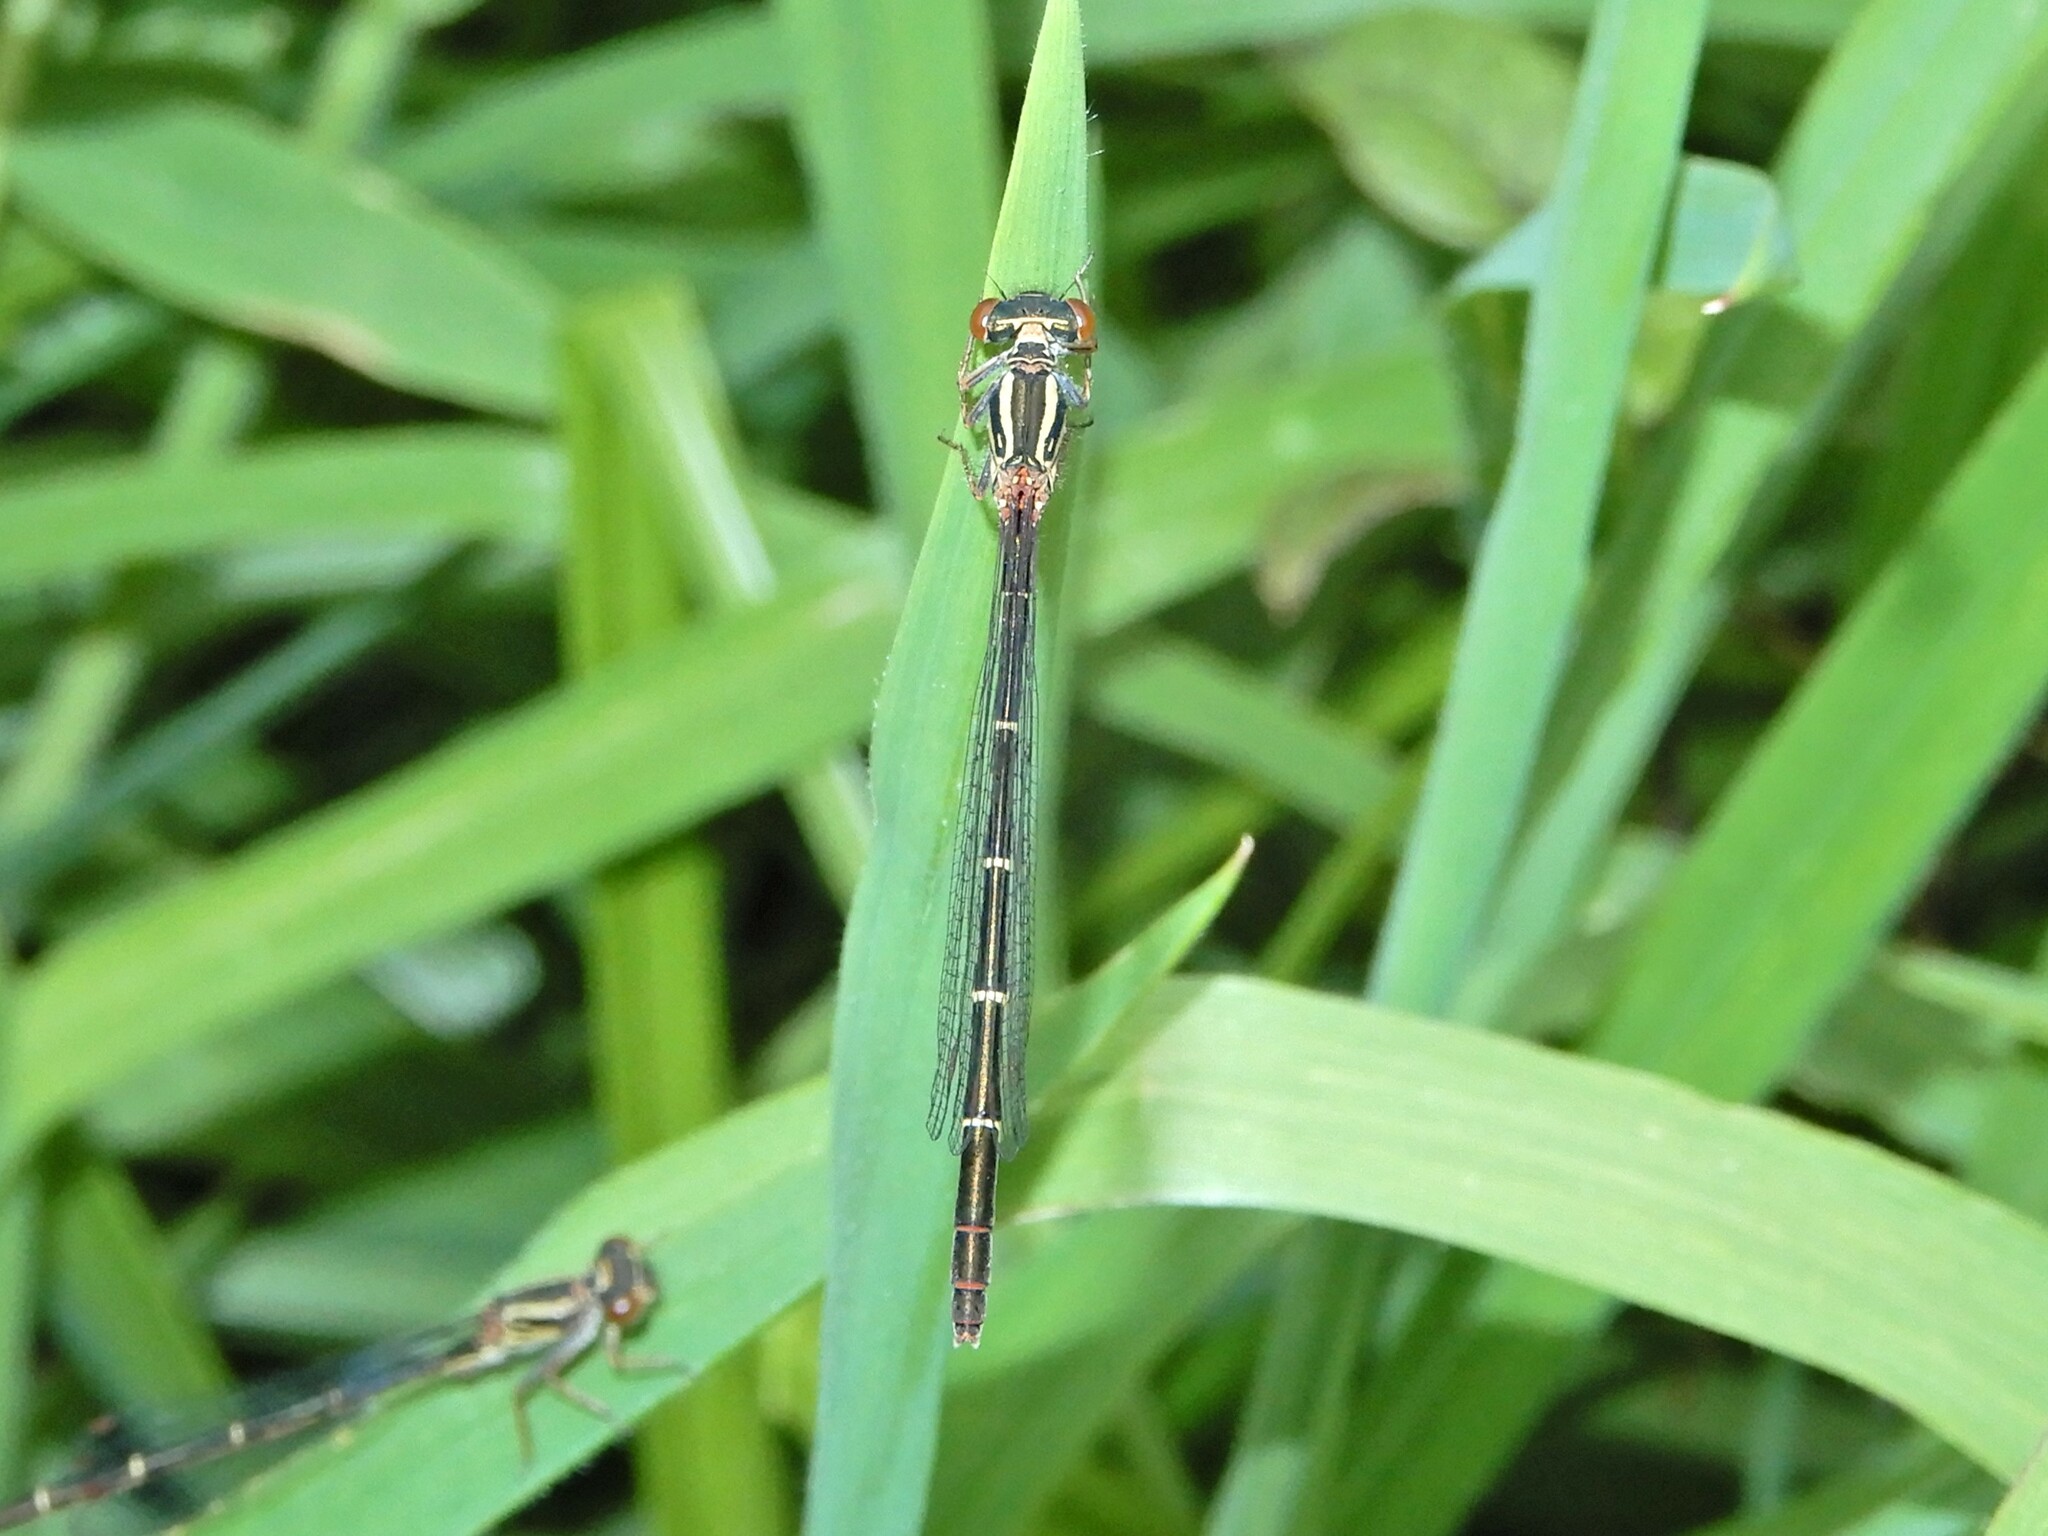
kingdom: Animalia
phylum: Arthropoda
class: Insecta
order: Odonata
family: Coenagrionidae
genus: Xanthocnemis
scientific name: Xanthocnemis zealandica
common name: Common redcoat damselfly
